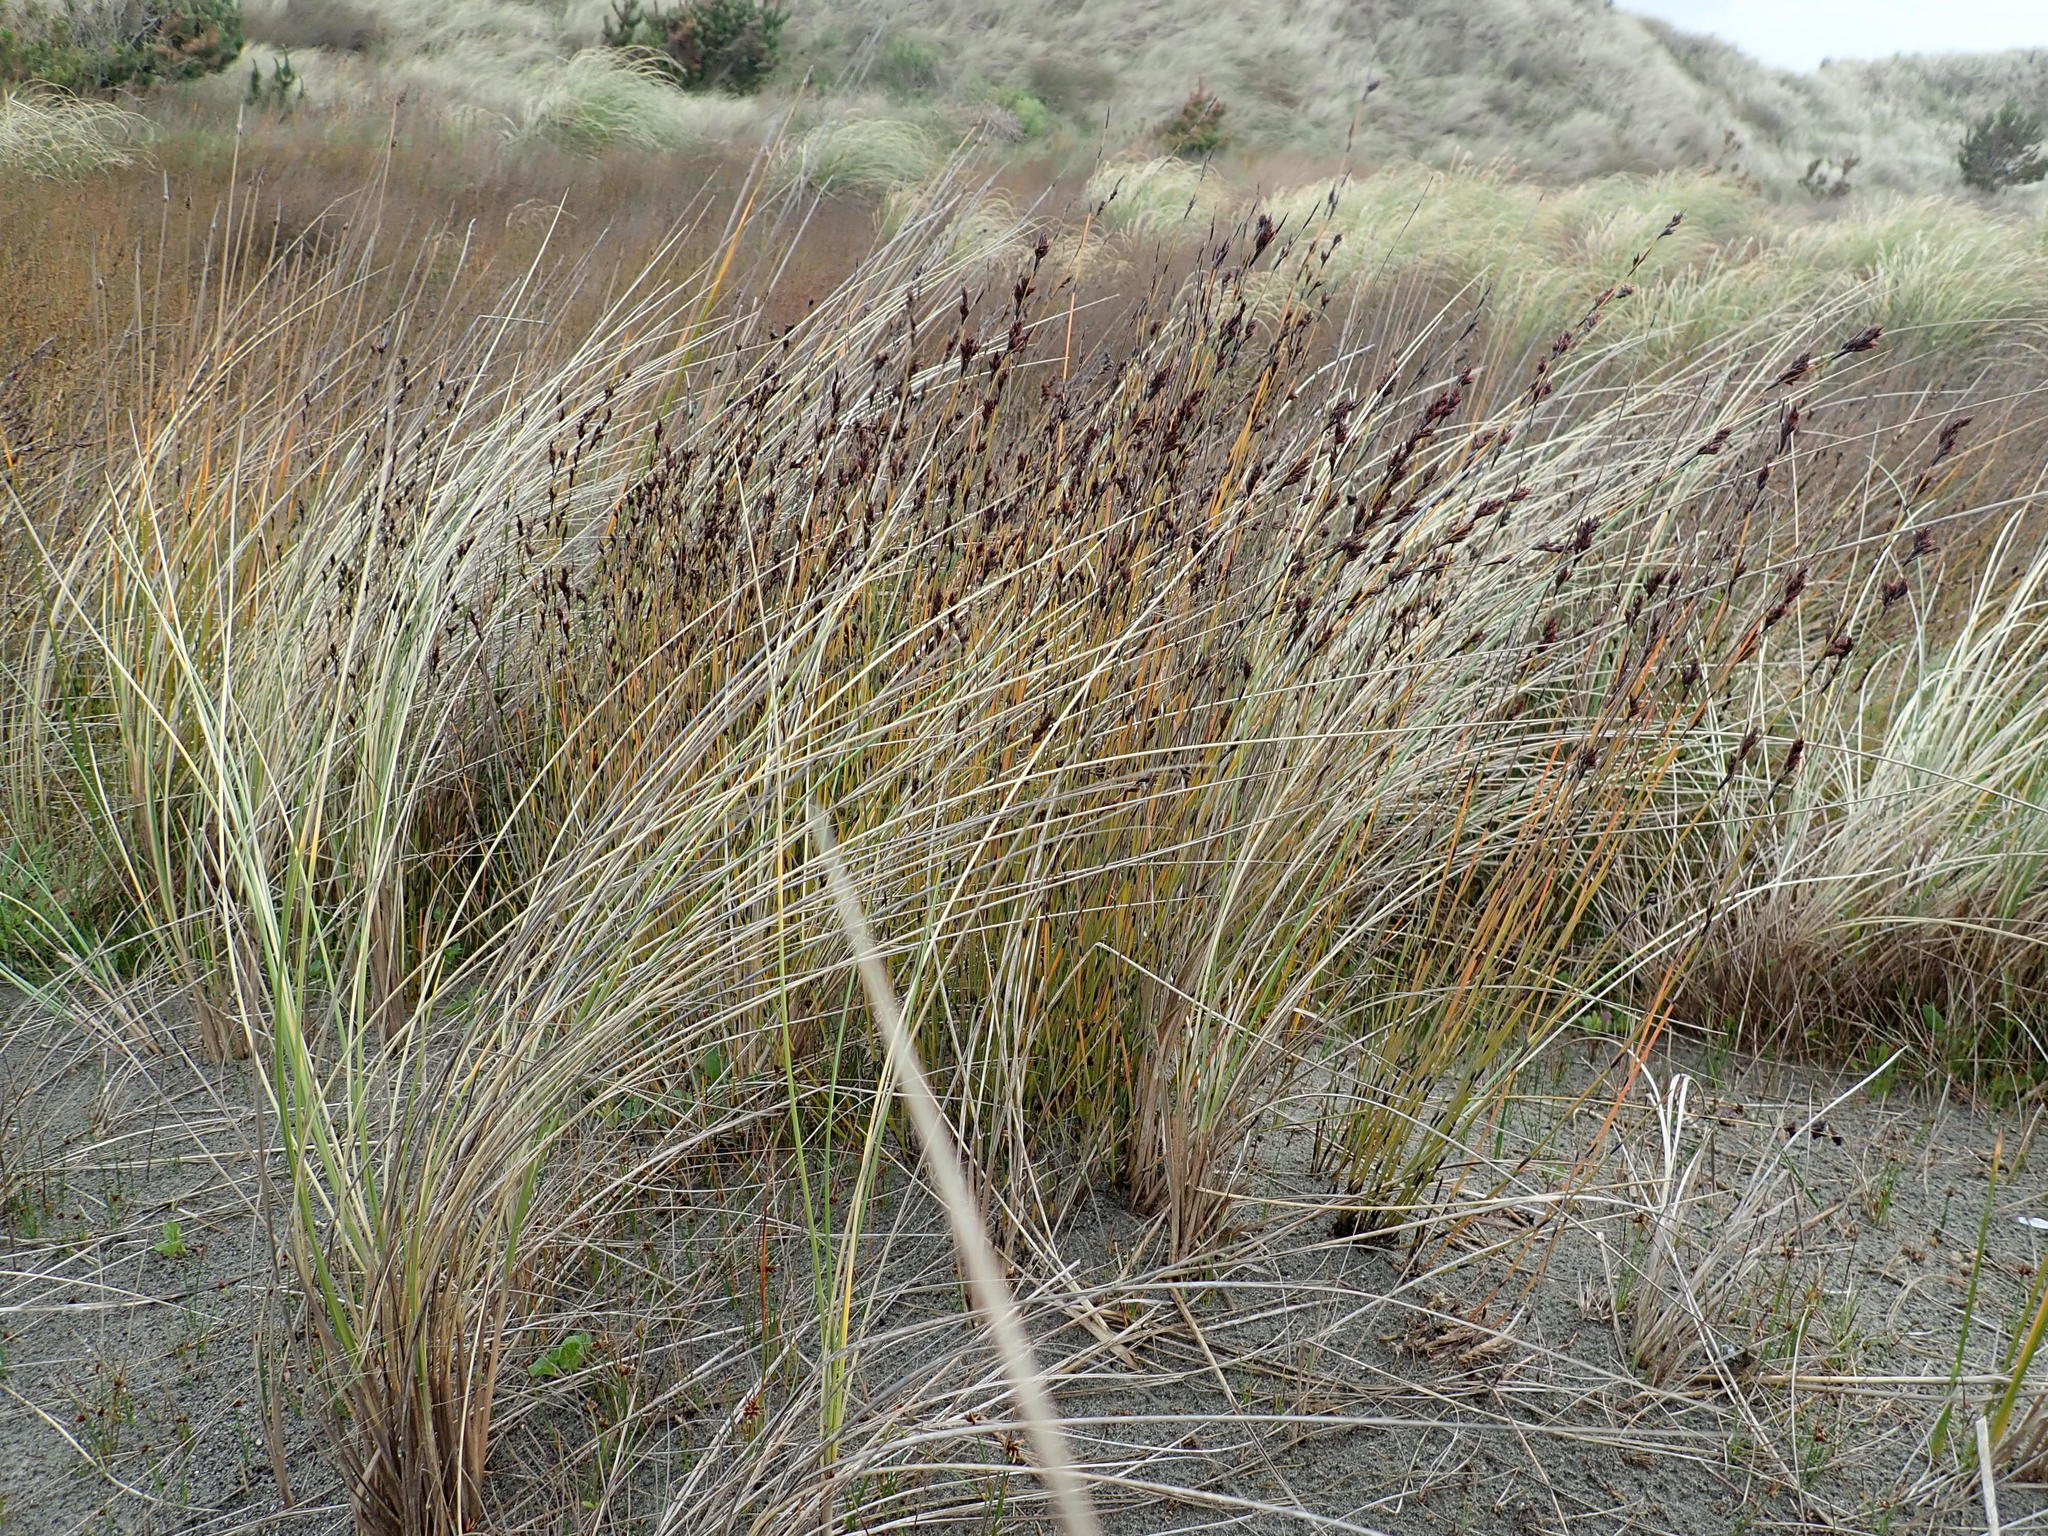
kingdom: Plantae
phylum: Tracheophyta
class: Liliopsida
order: Poales
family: Restionaceae
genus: Apodasmia
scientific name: Apodasmia similis
